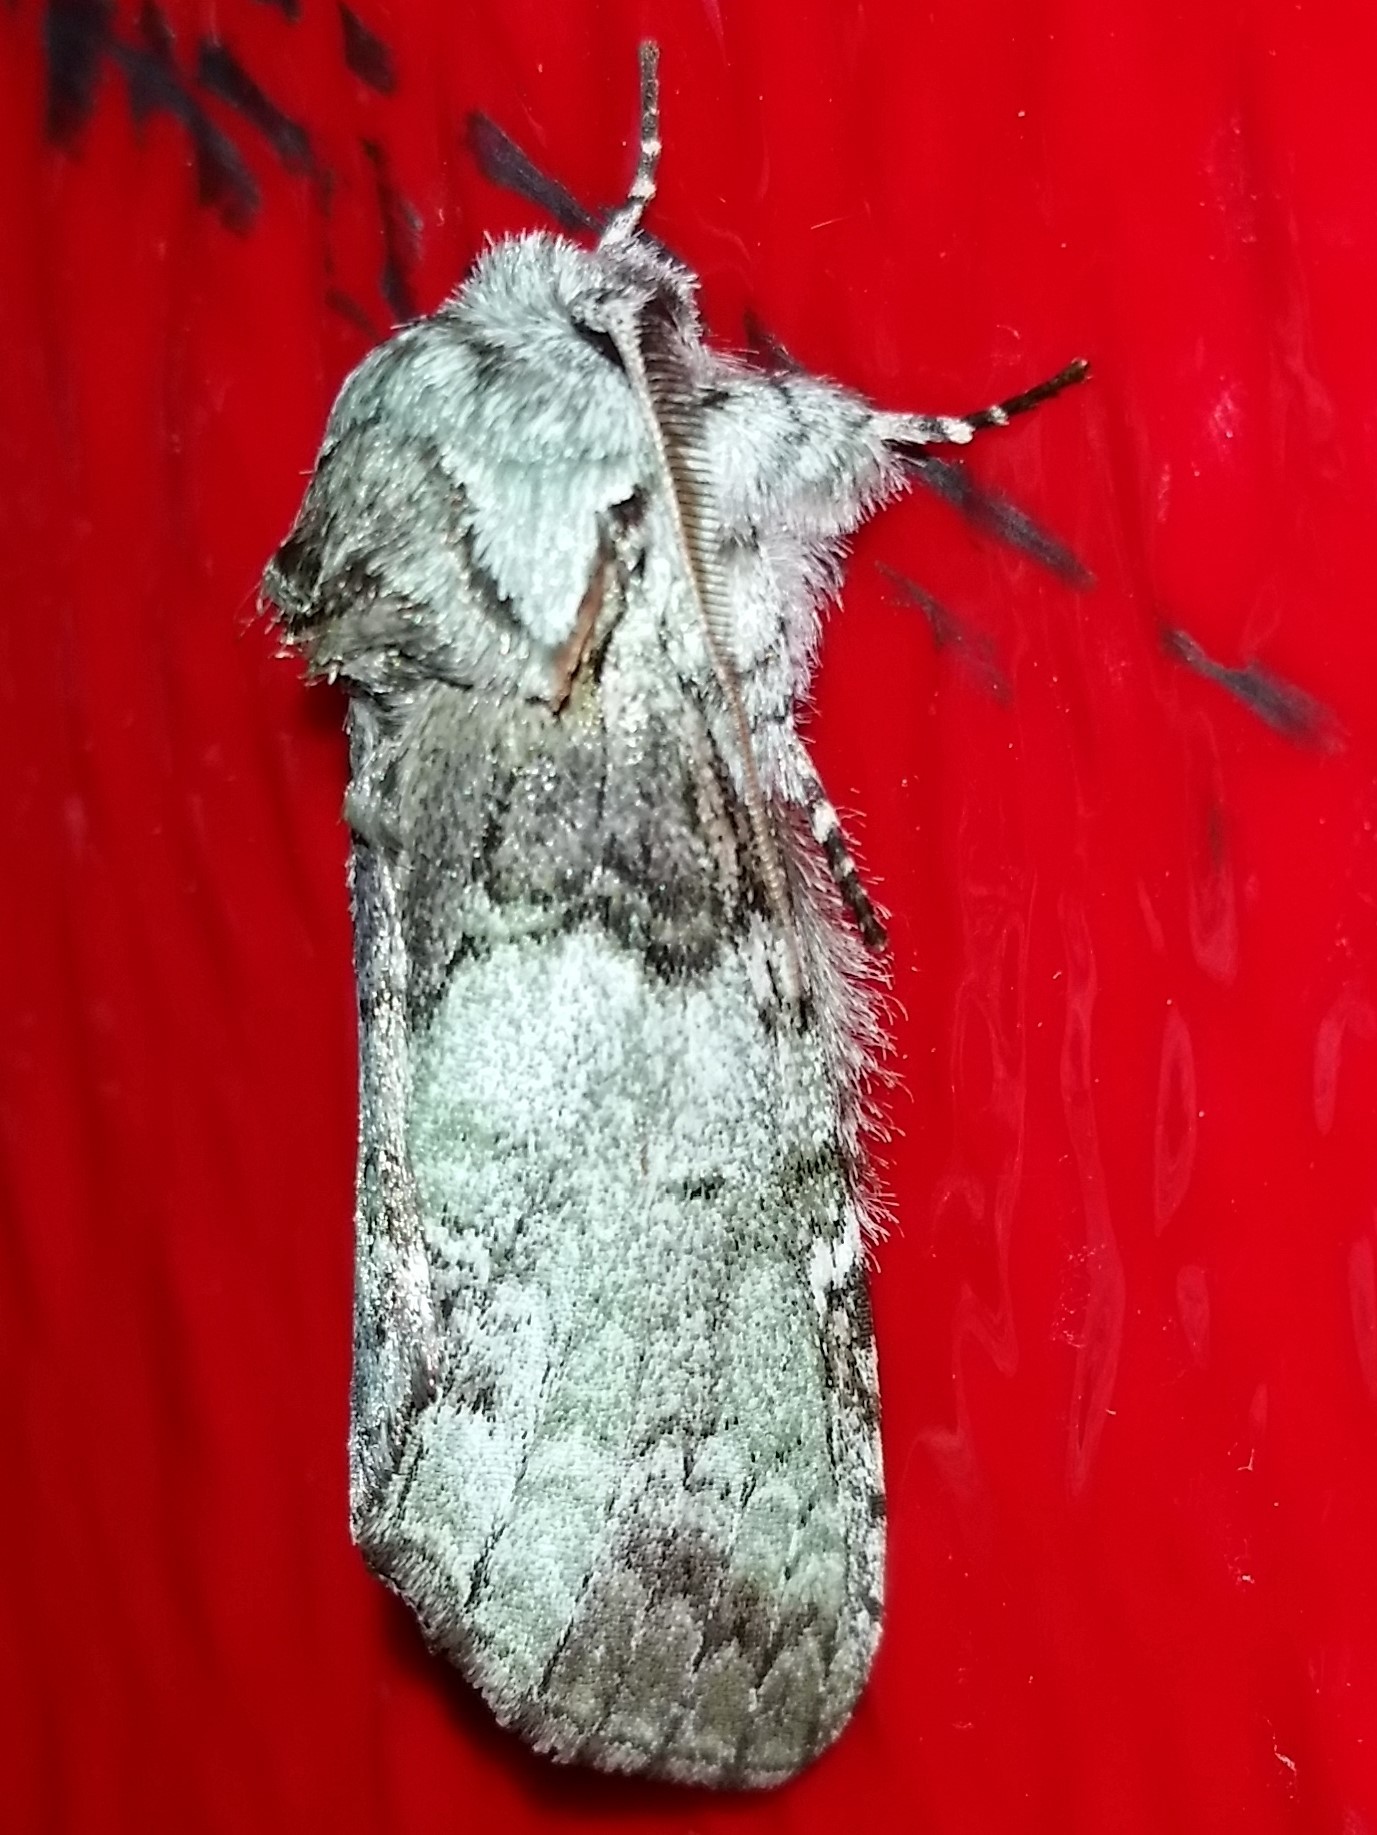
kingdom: Animalia
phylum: Arthropoda
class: Insecta
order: Lepidoptera
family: Notodontidae
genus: Macrurocampa
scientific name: Macrurocampa marthesia
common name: Mottled prominent
